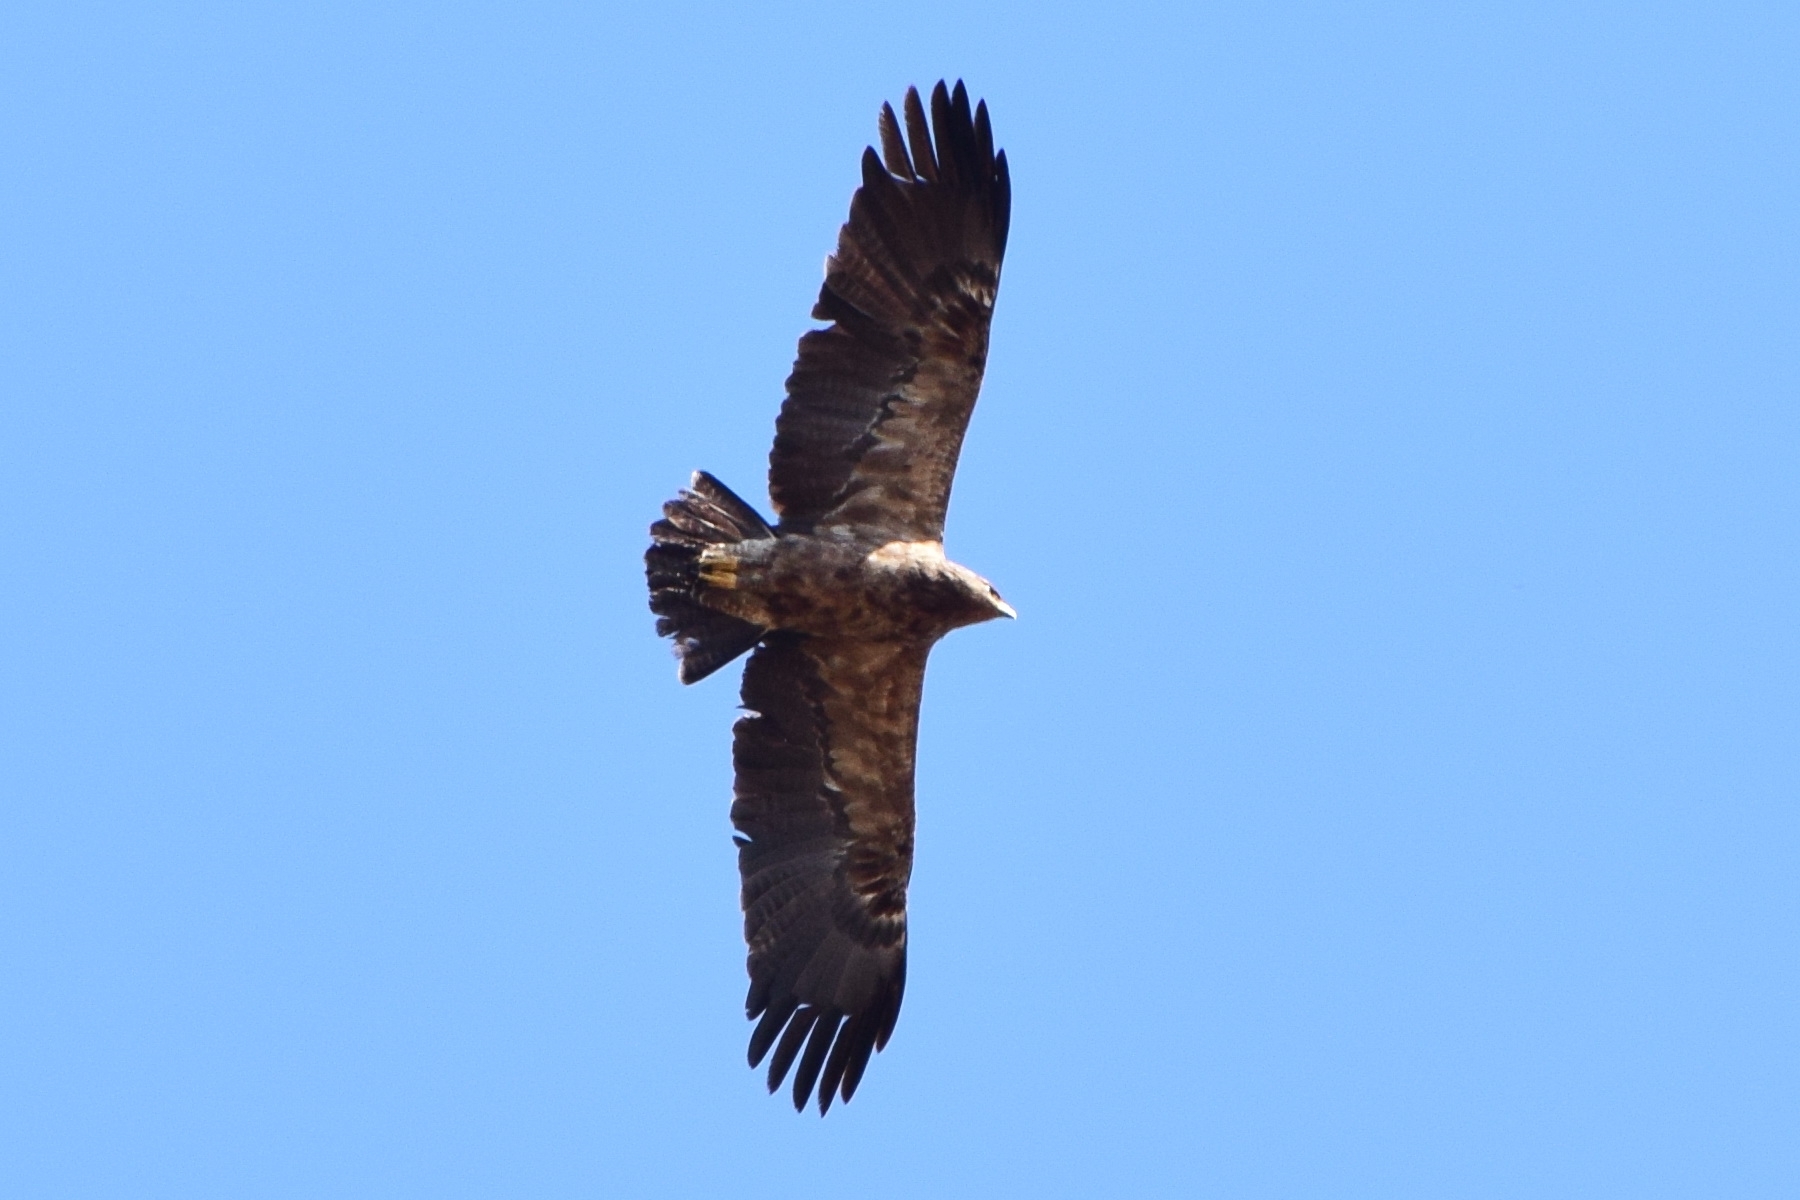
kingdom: Animalia
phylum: Chordata
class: Aves
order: Accipitriformes
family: Accipitridae
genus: Aquila
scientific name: Aquila pomarina
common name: Lesser spotted eagle
